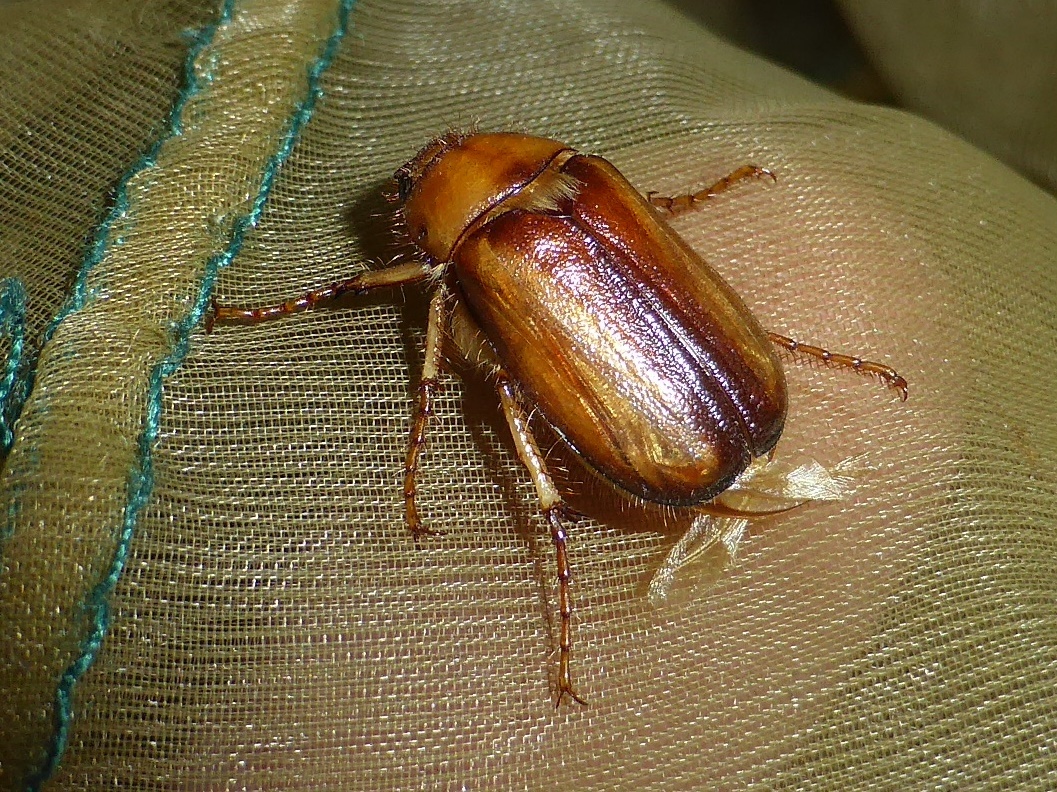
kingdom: Animalia
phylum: Arthropoda
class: Insecta
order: Coleoptera
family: Scarabaeidae
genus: Rhizotrogus
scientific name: Rhizotrogus aestivus
